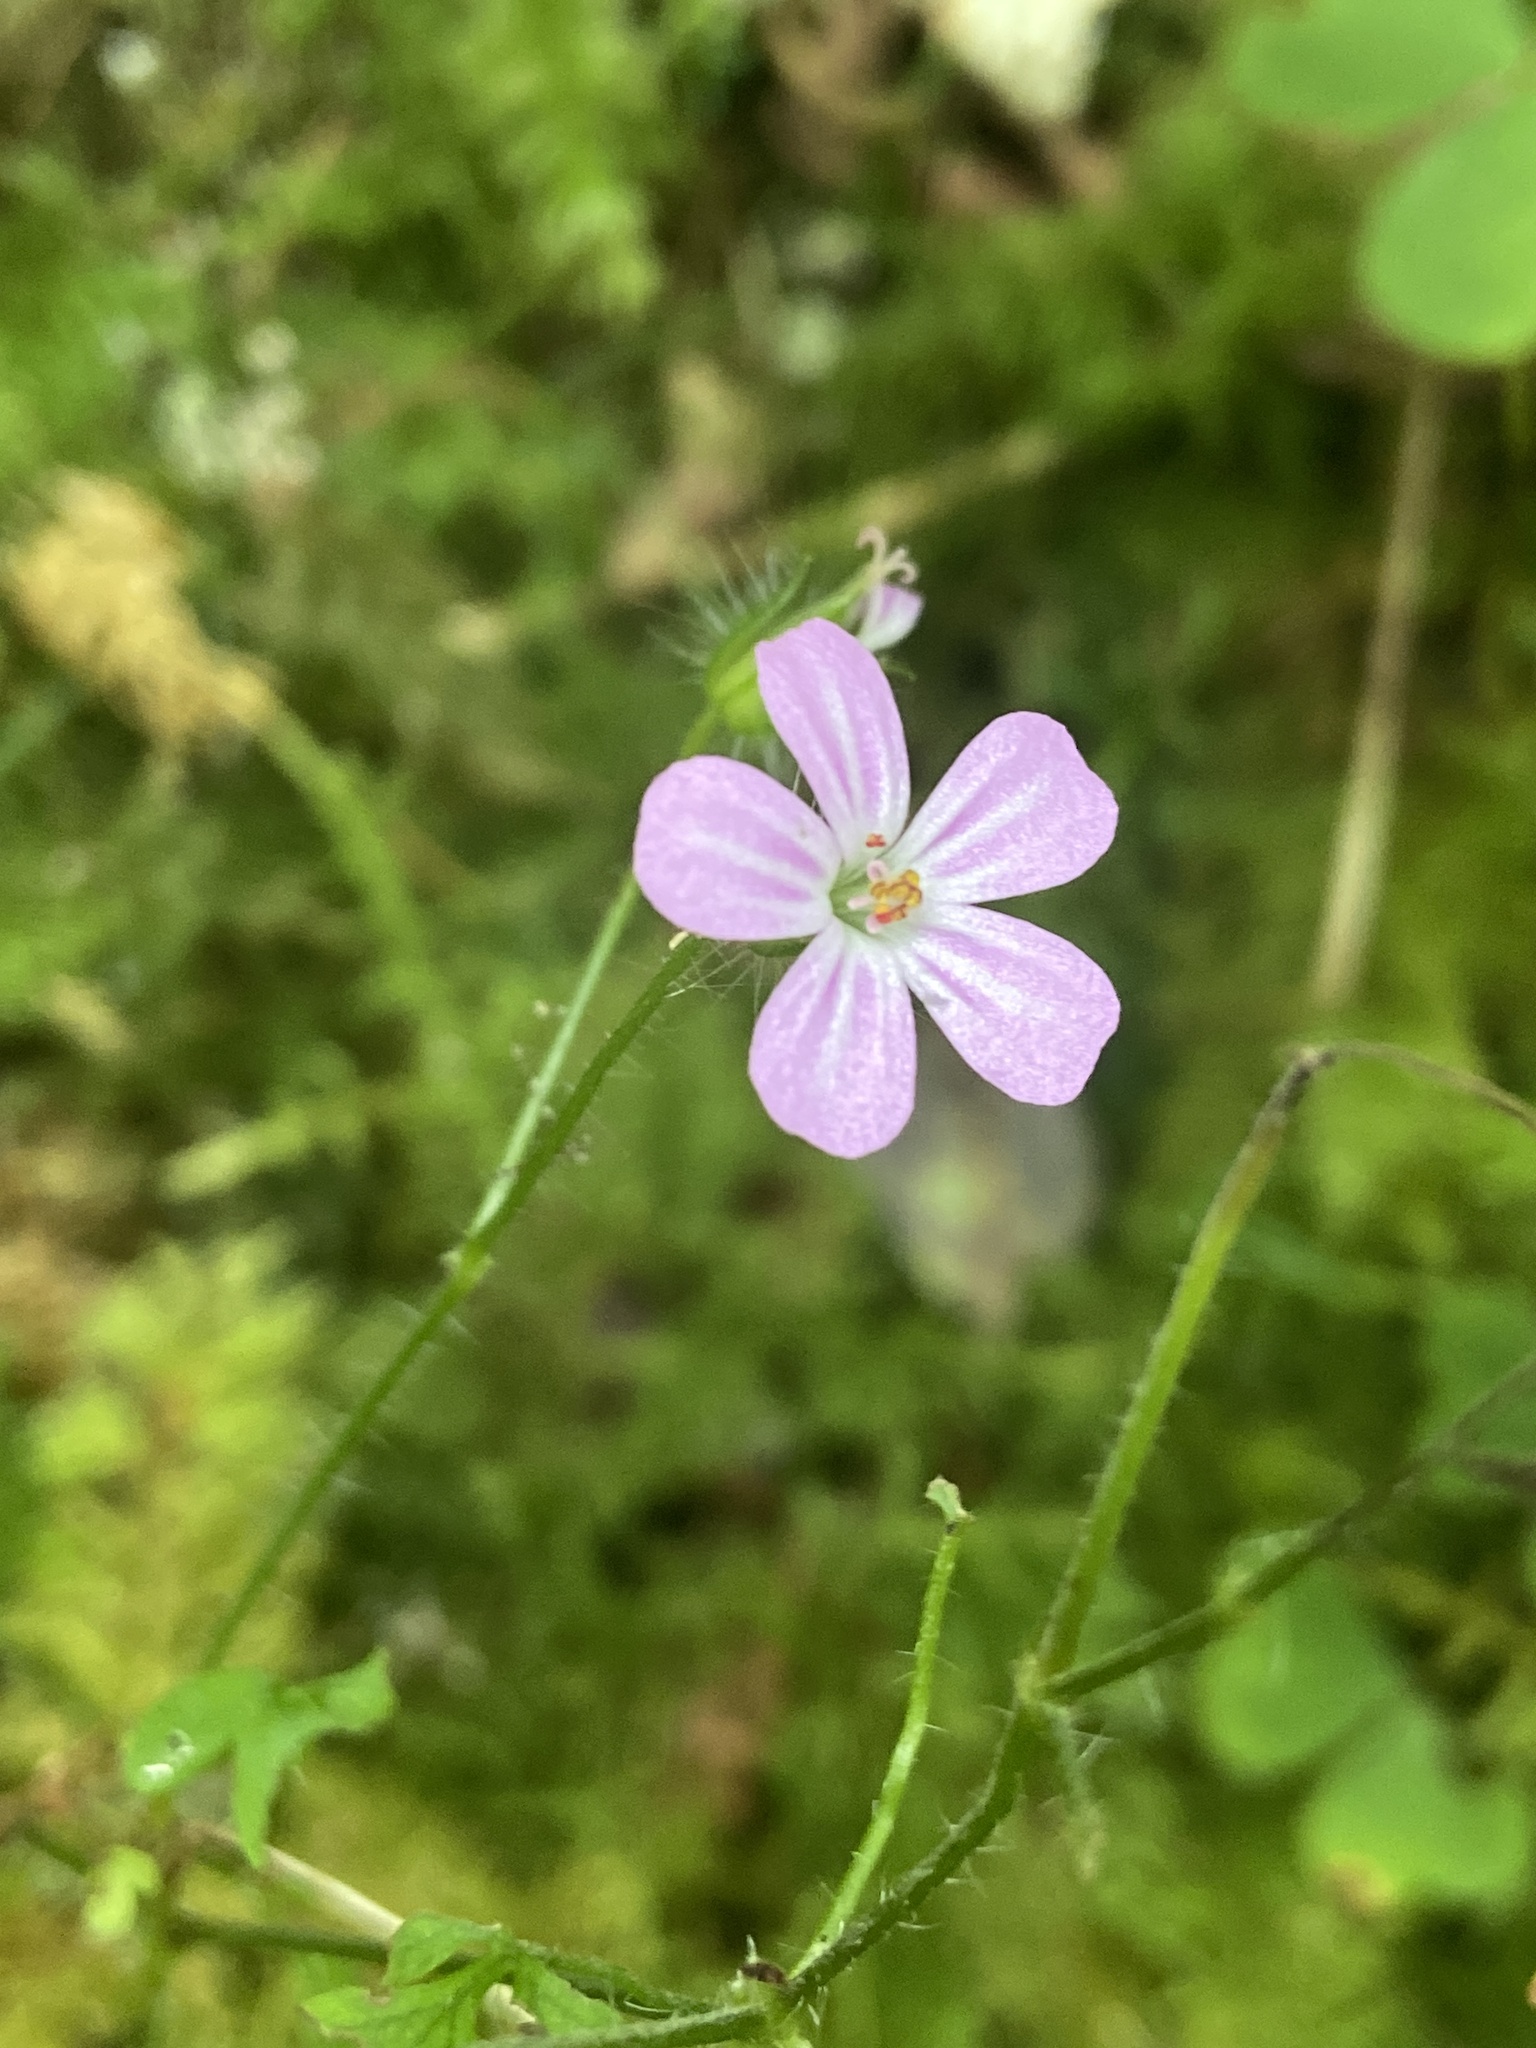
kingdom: Plantae
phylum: Tracheophyta
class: Magnoliopsida
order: Geraniales
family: Geraniaceae
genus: Geranium
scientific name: Geranium robertianum
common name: Herb-robert
